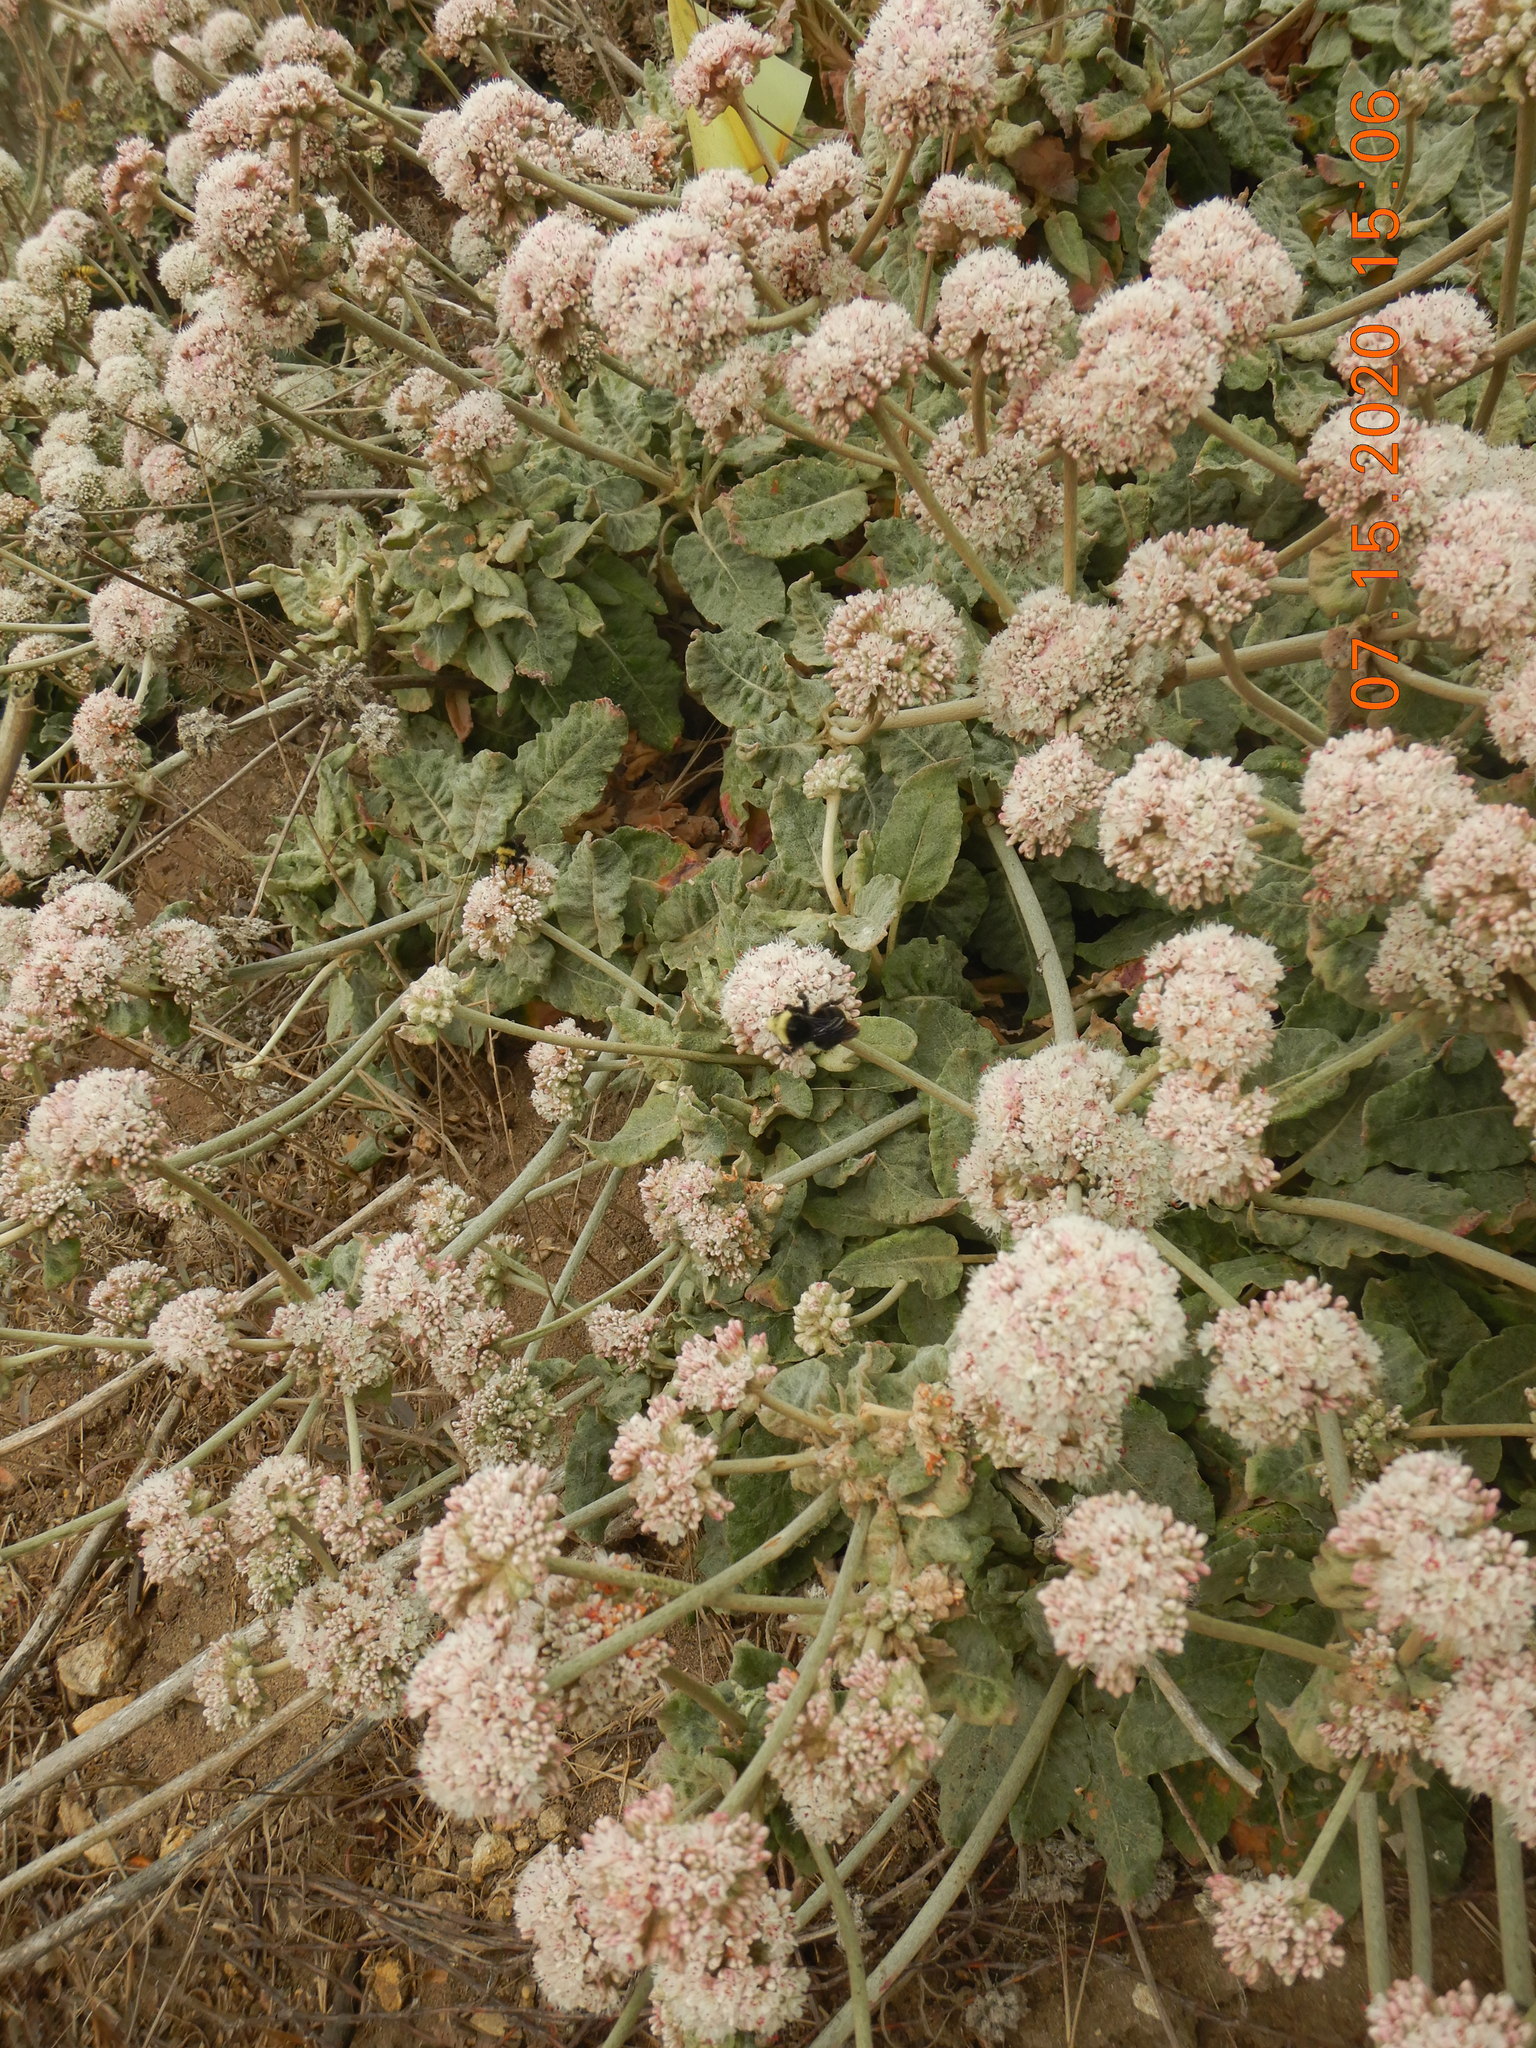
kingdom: Plantae
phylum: Tracheophyta
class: Magnoliopsida
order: Caryophyllales
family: Polygonaceae
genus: Eriogonum
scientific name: Eriogonum latifolium
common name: Seaside wild buckwheat
